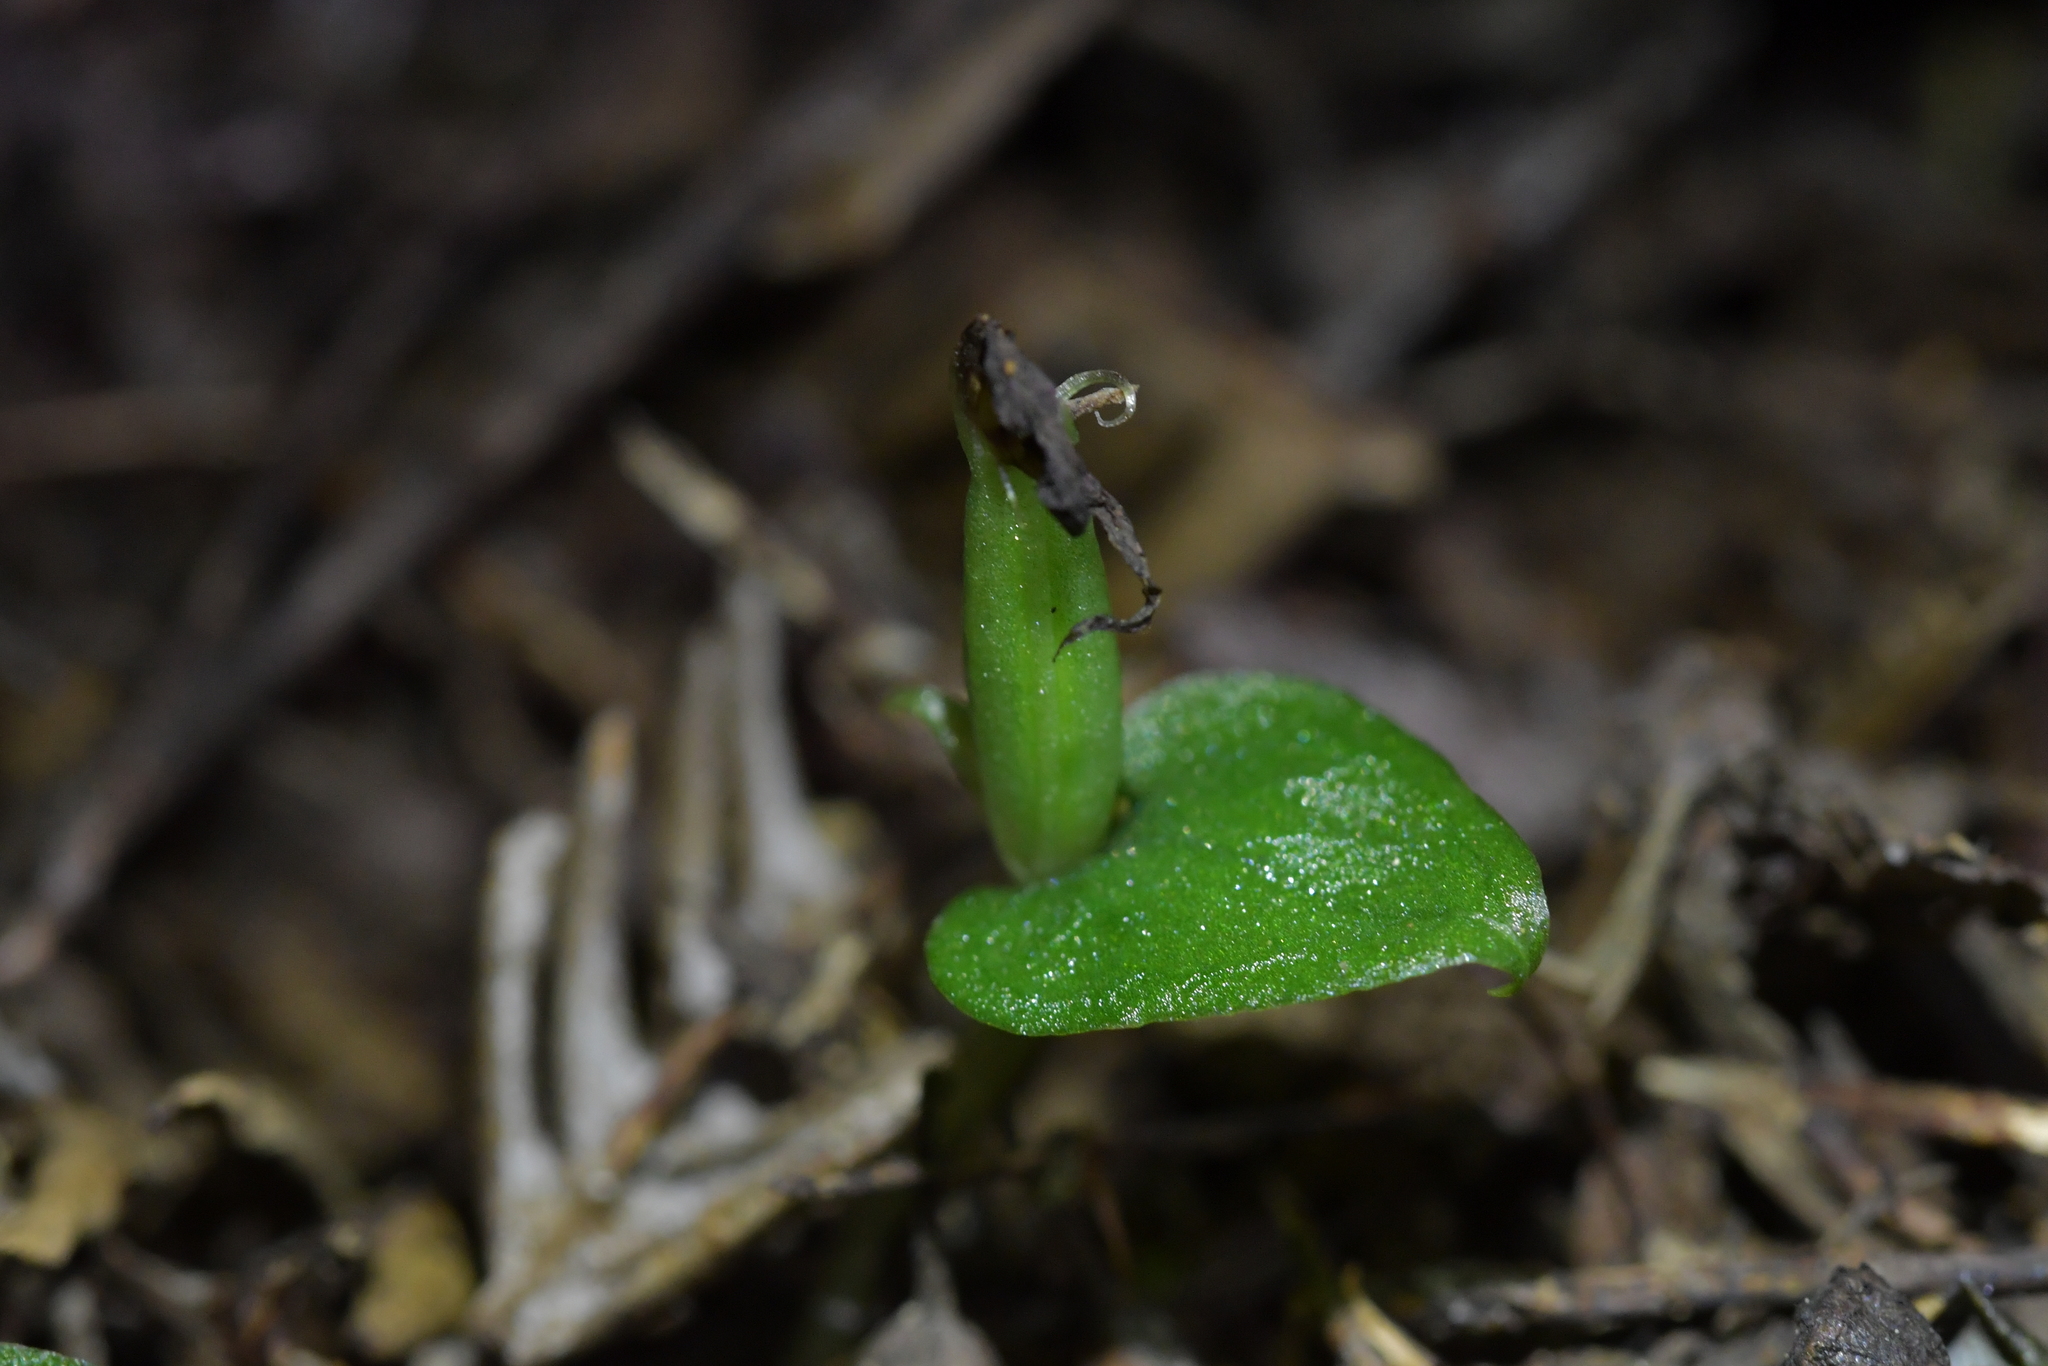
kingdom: Plantae
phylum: Tracheophyta
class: Liliopsida
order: Asparagales
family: Orchidaceae
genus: Corybas
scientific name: Corybas cheesemanii
